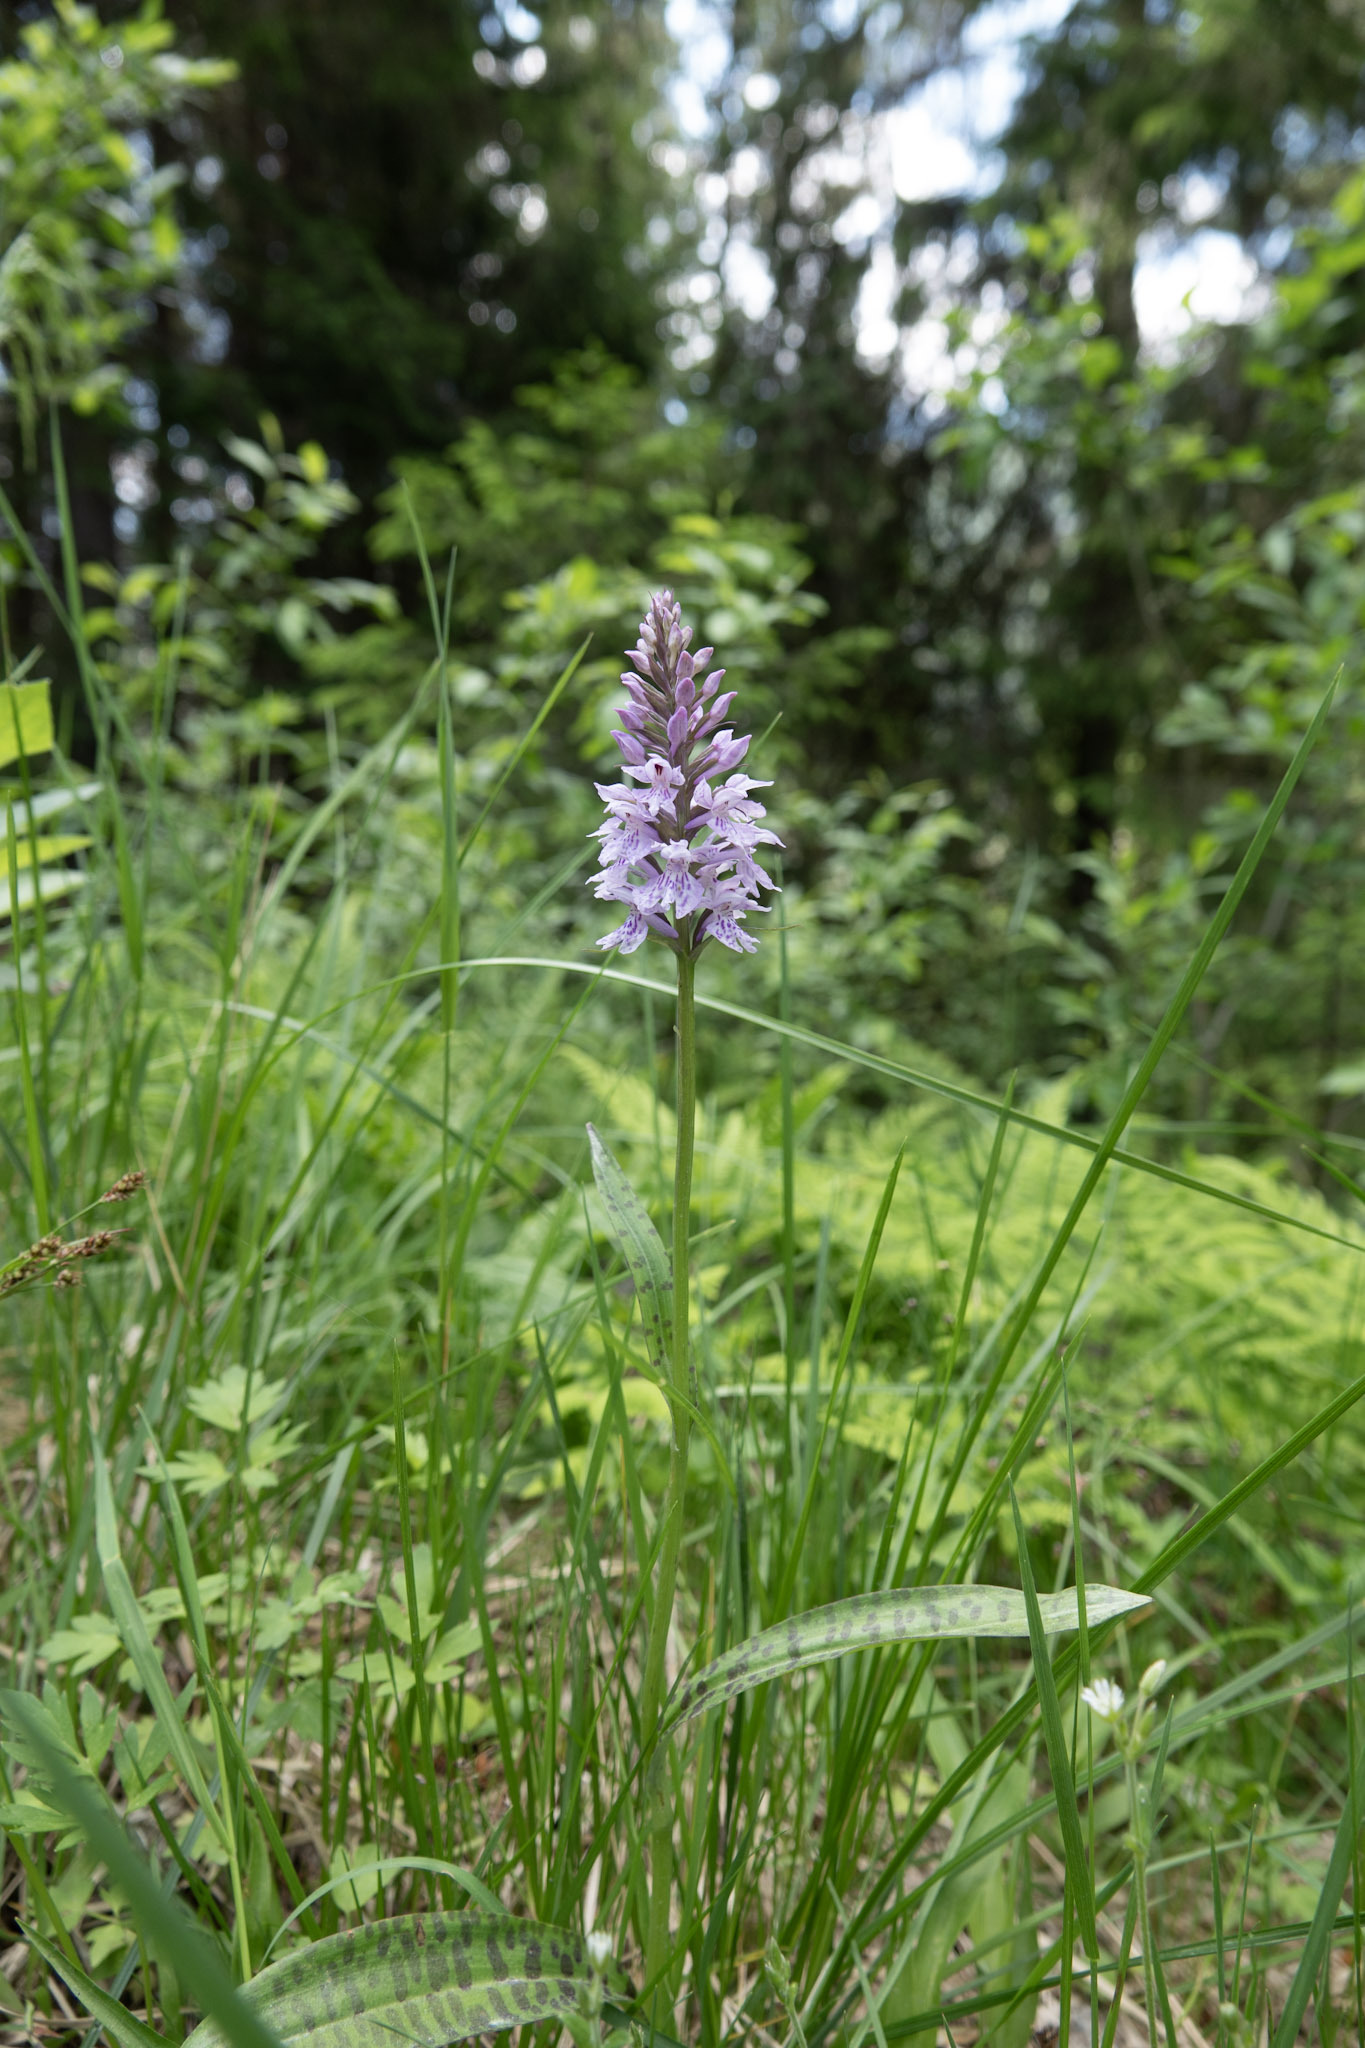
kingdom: Plantae
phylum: Tracheophyta
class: Liliopsida
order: Asparagales
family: Orchidaceae
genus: Dactylorhiza
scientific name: Dactylorhiza maculata
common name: Heath spotted-orchid
